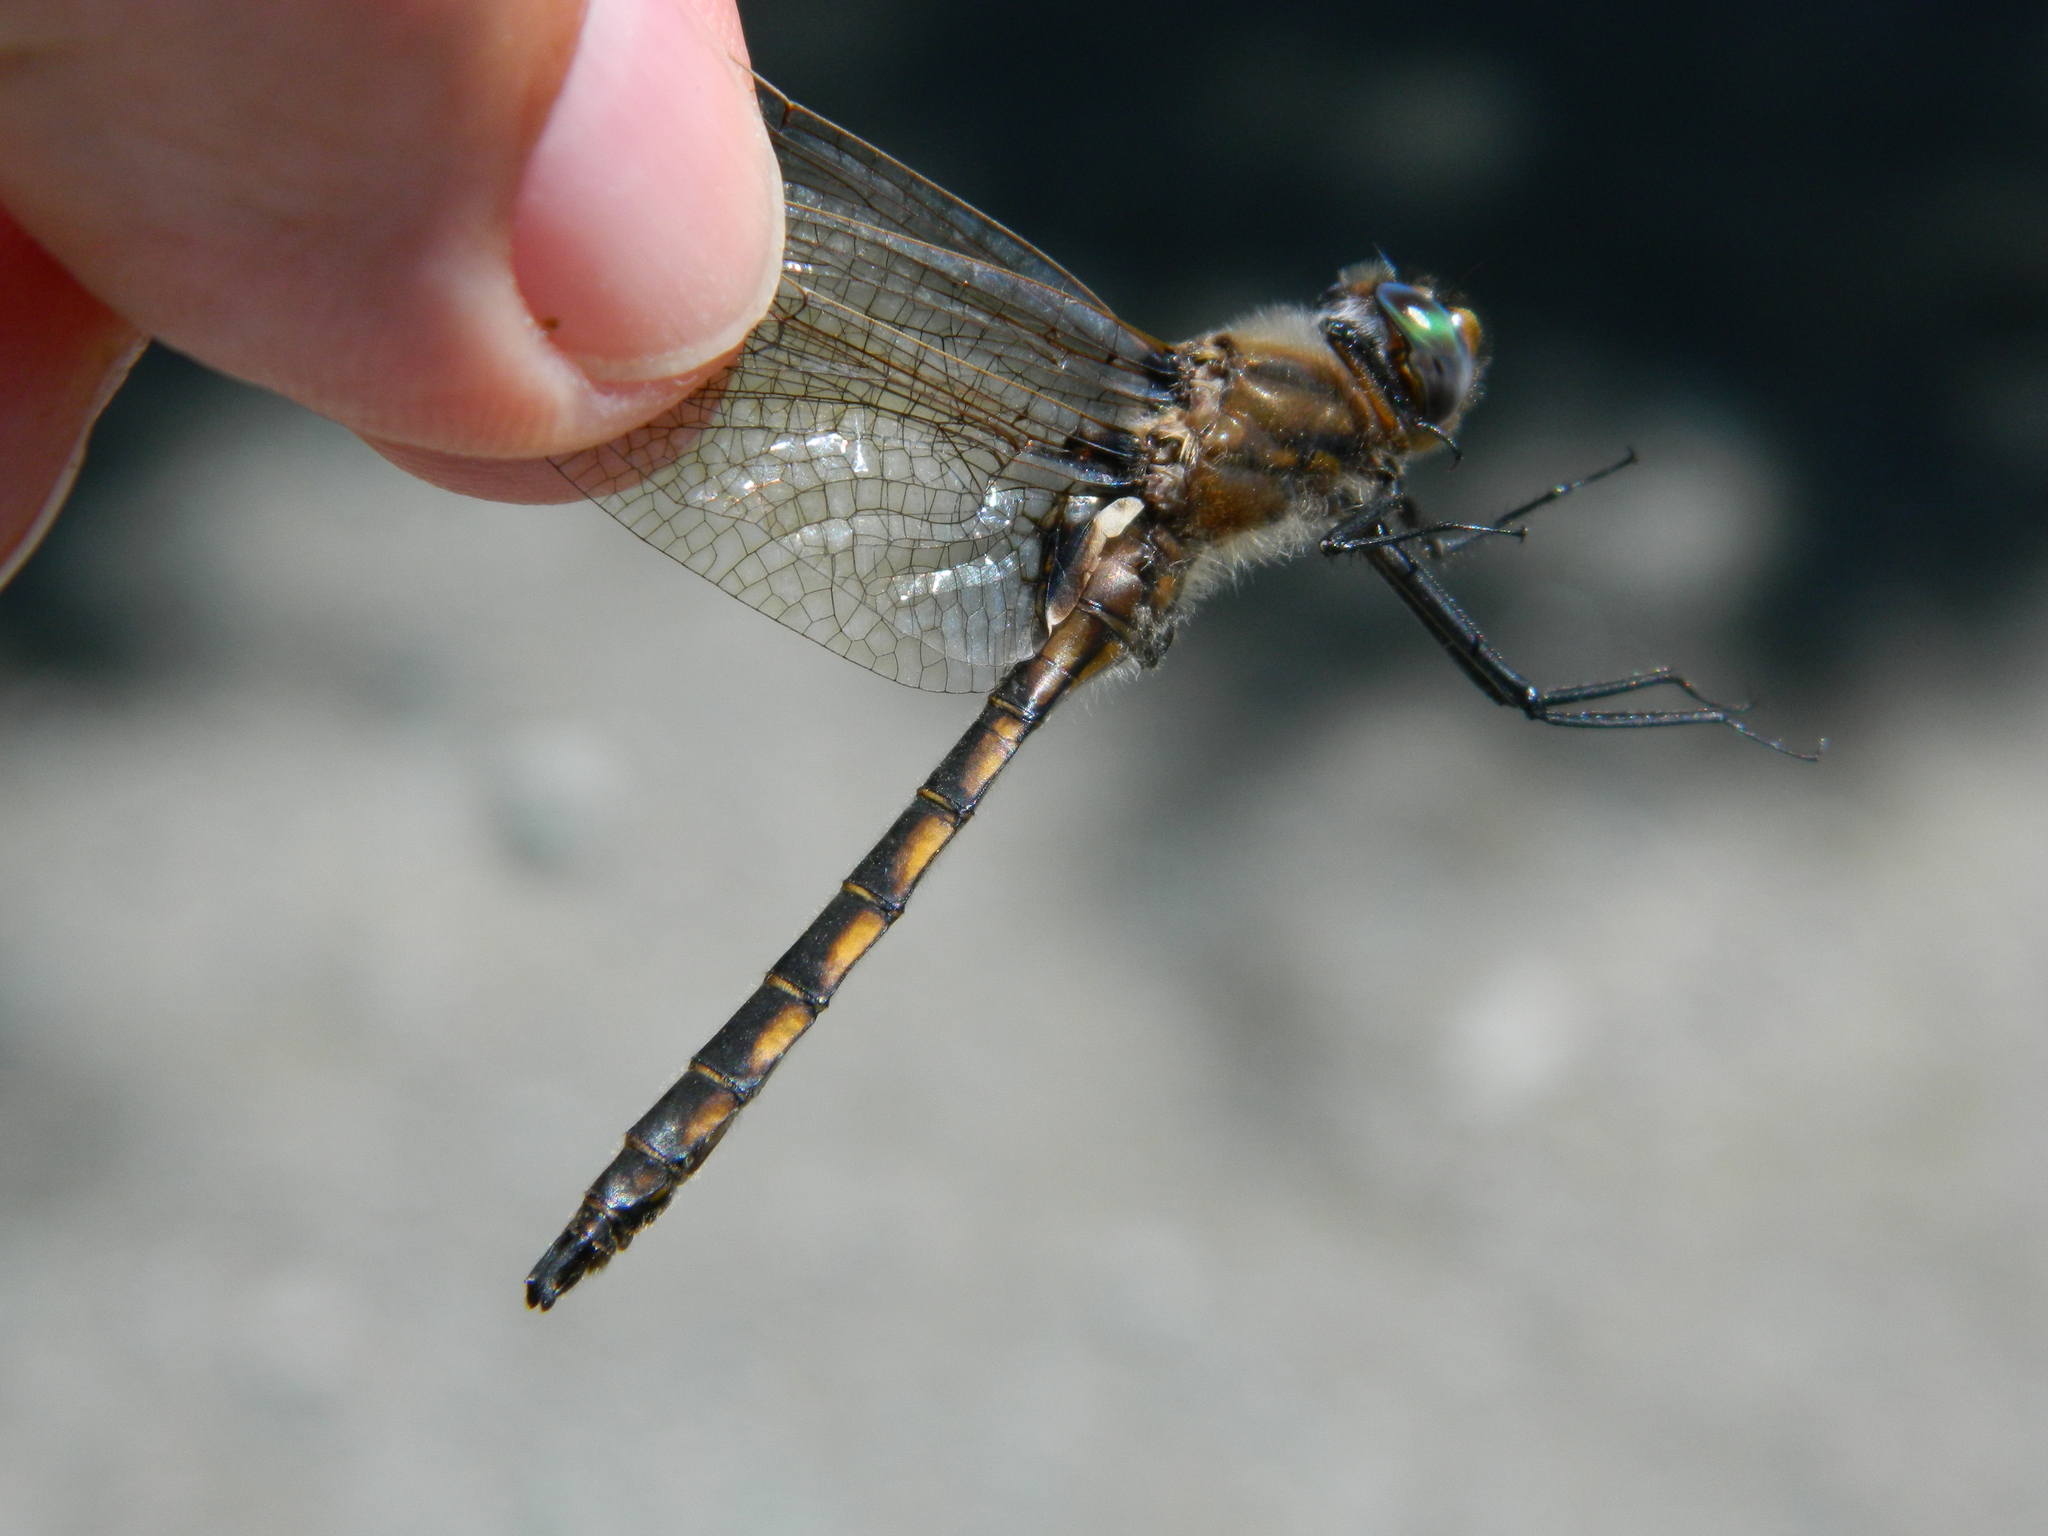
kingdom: Animalia
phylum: Arthropoda
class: Insecta
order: Odonata
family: Corduliidae
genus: Epitheca
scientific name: Epitheca canis
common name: Beaverpond baskettail
